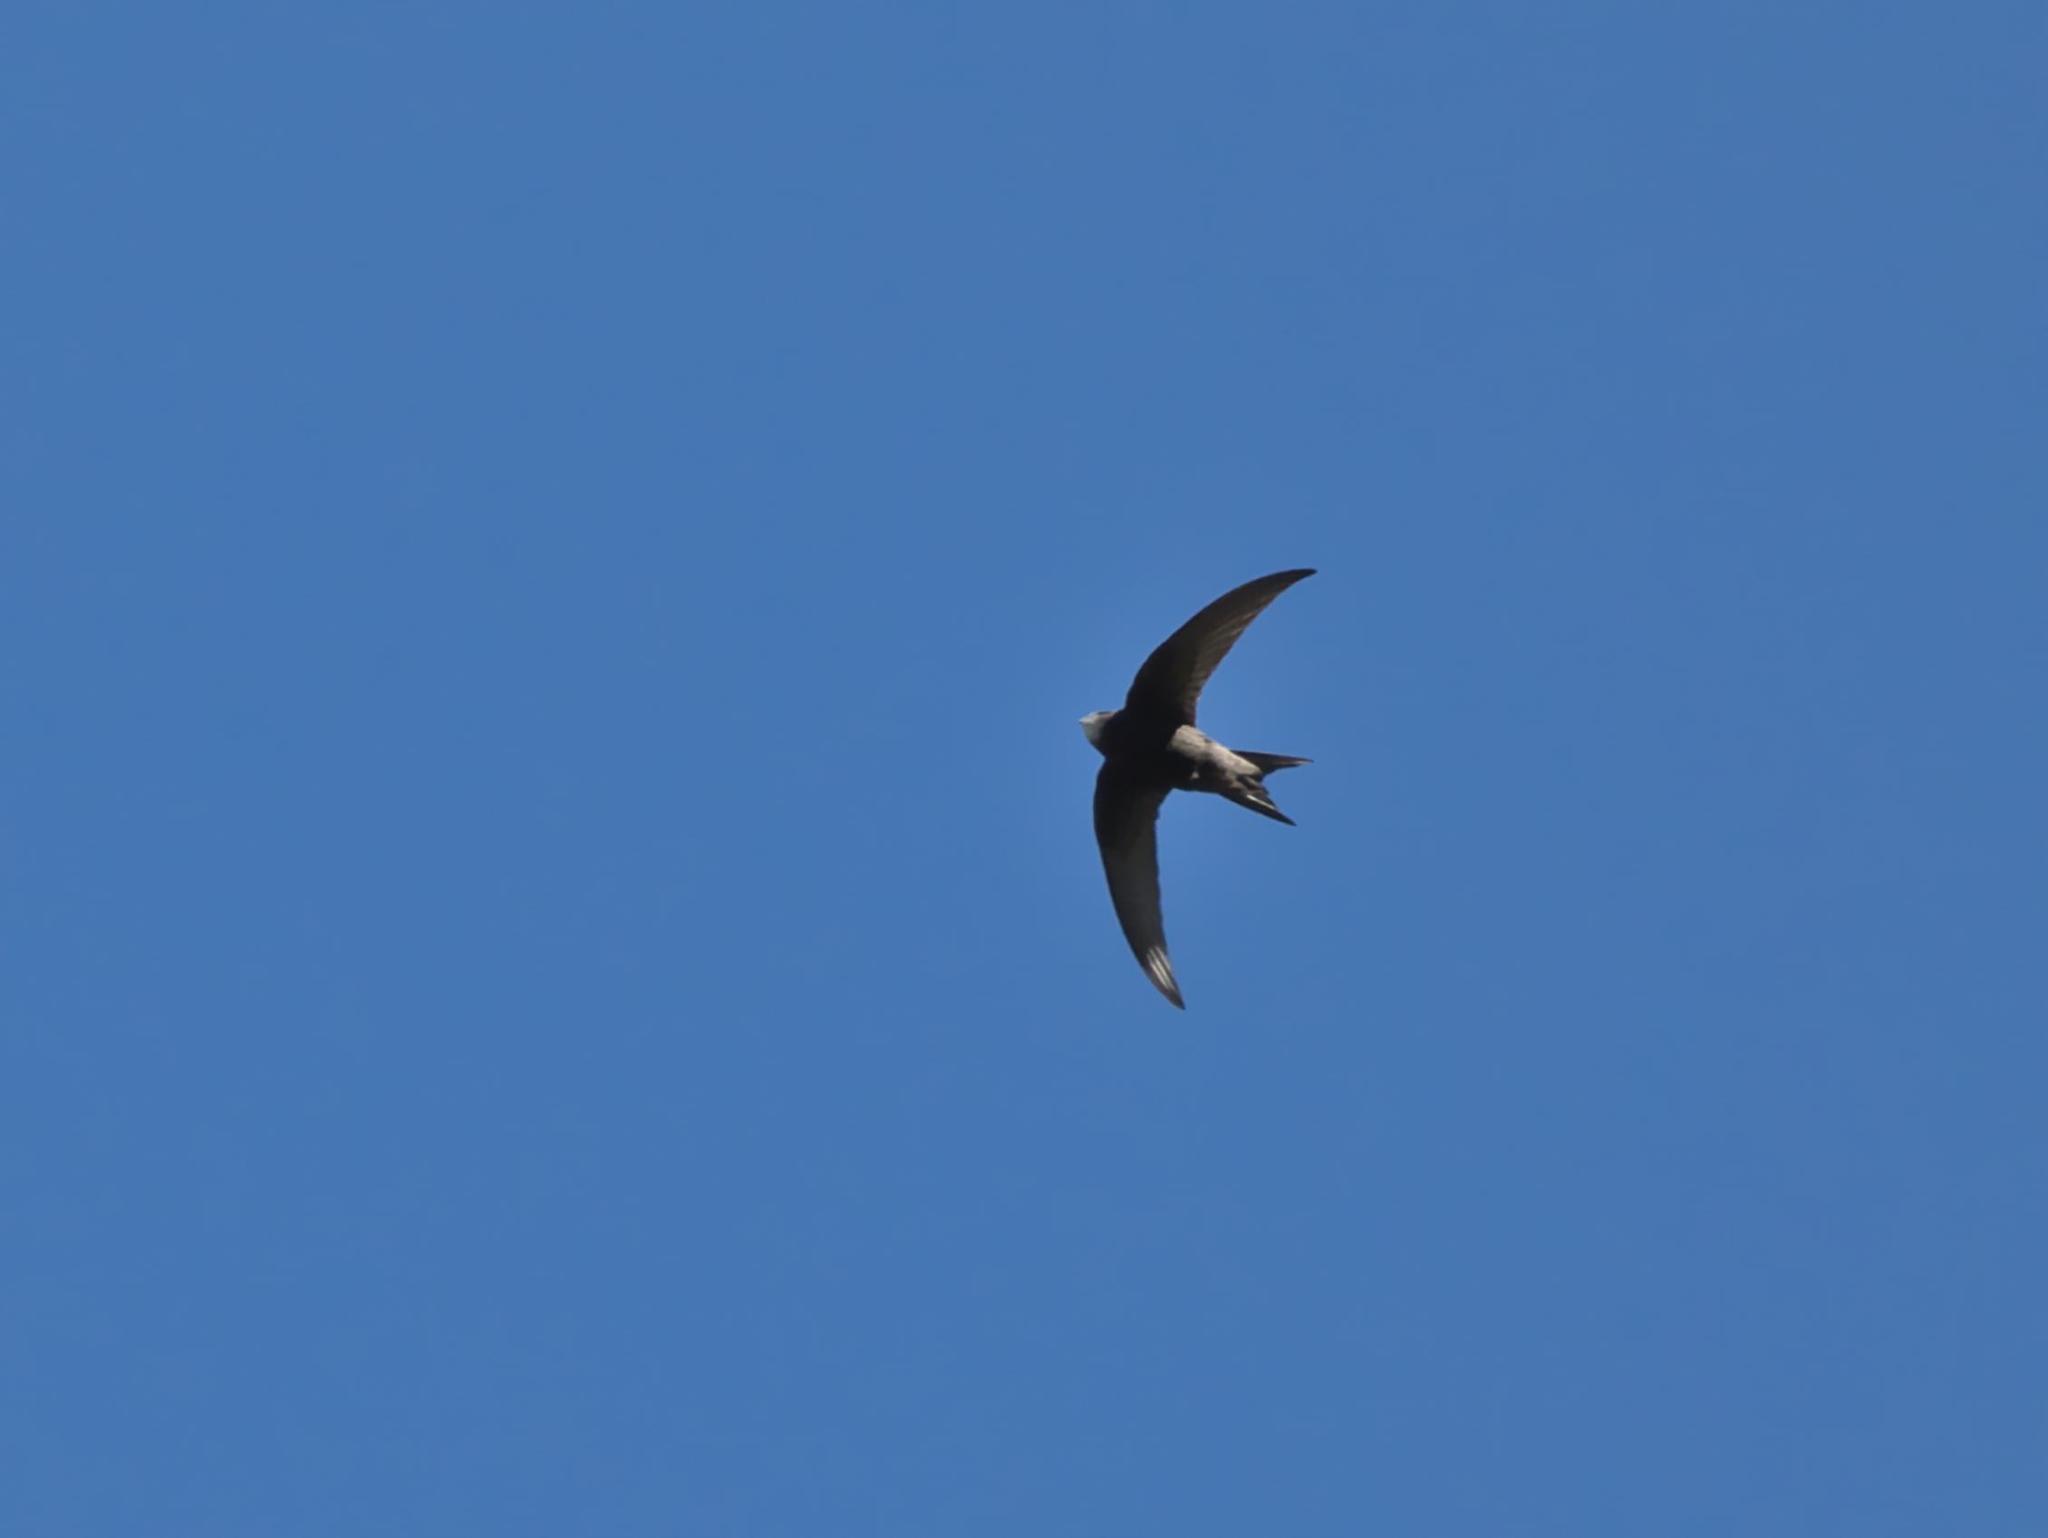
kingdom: Animalia
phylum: Chordata
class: Aves
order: Apodiformes
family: Apodidae
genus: Apus
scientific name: Apus apus
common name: Common swift
